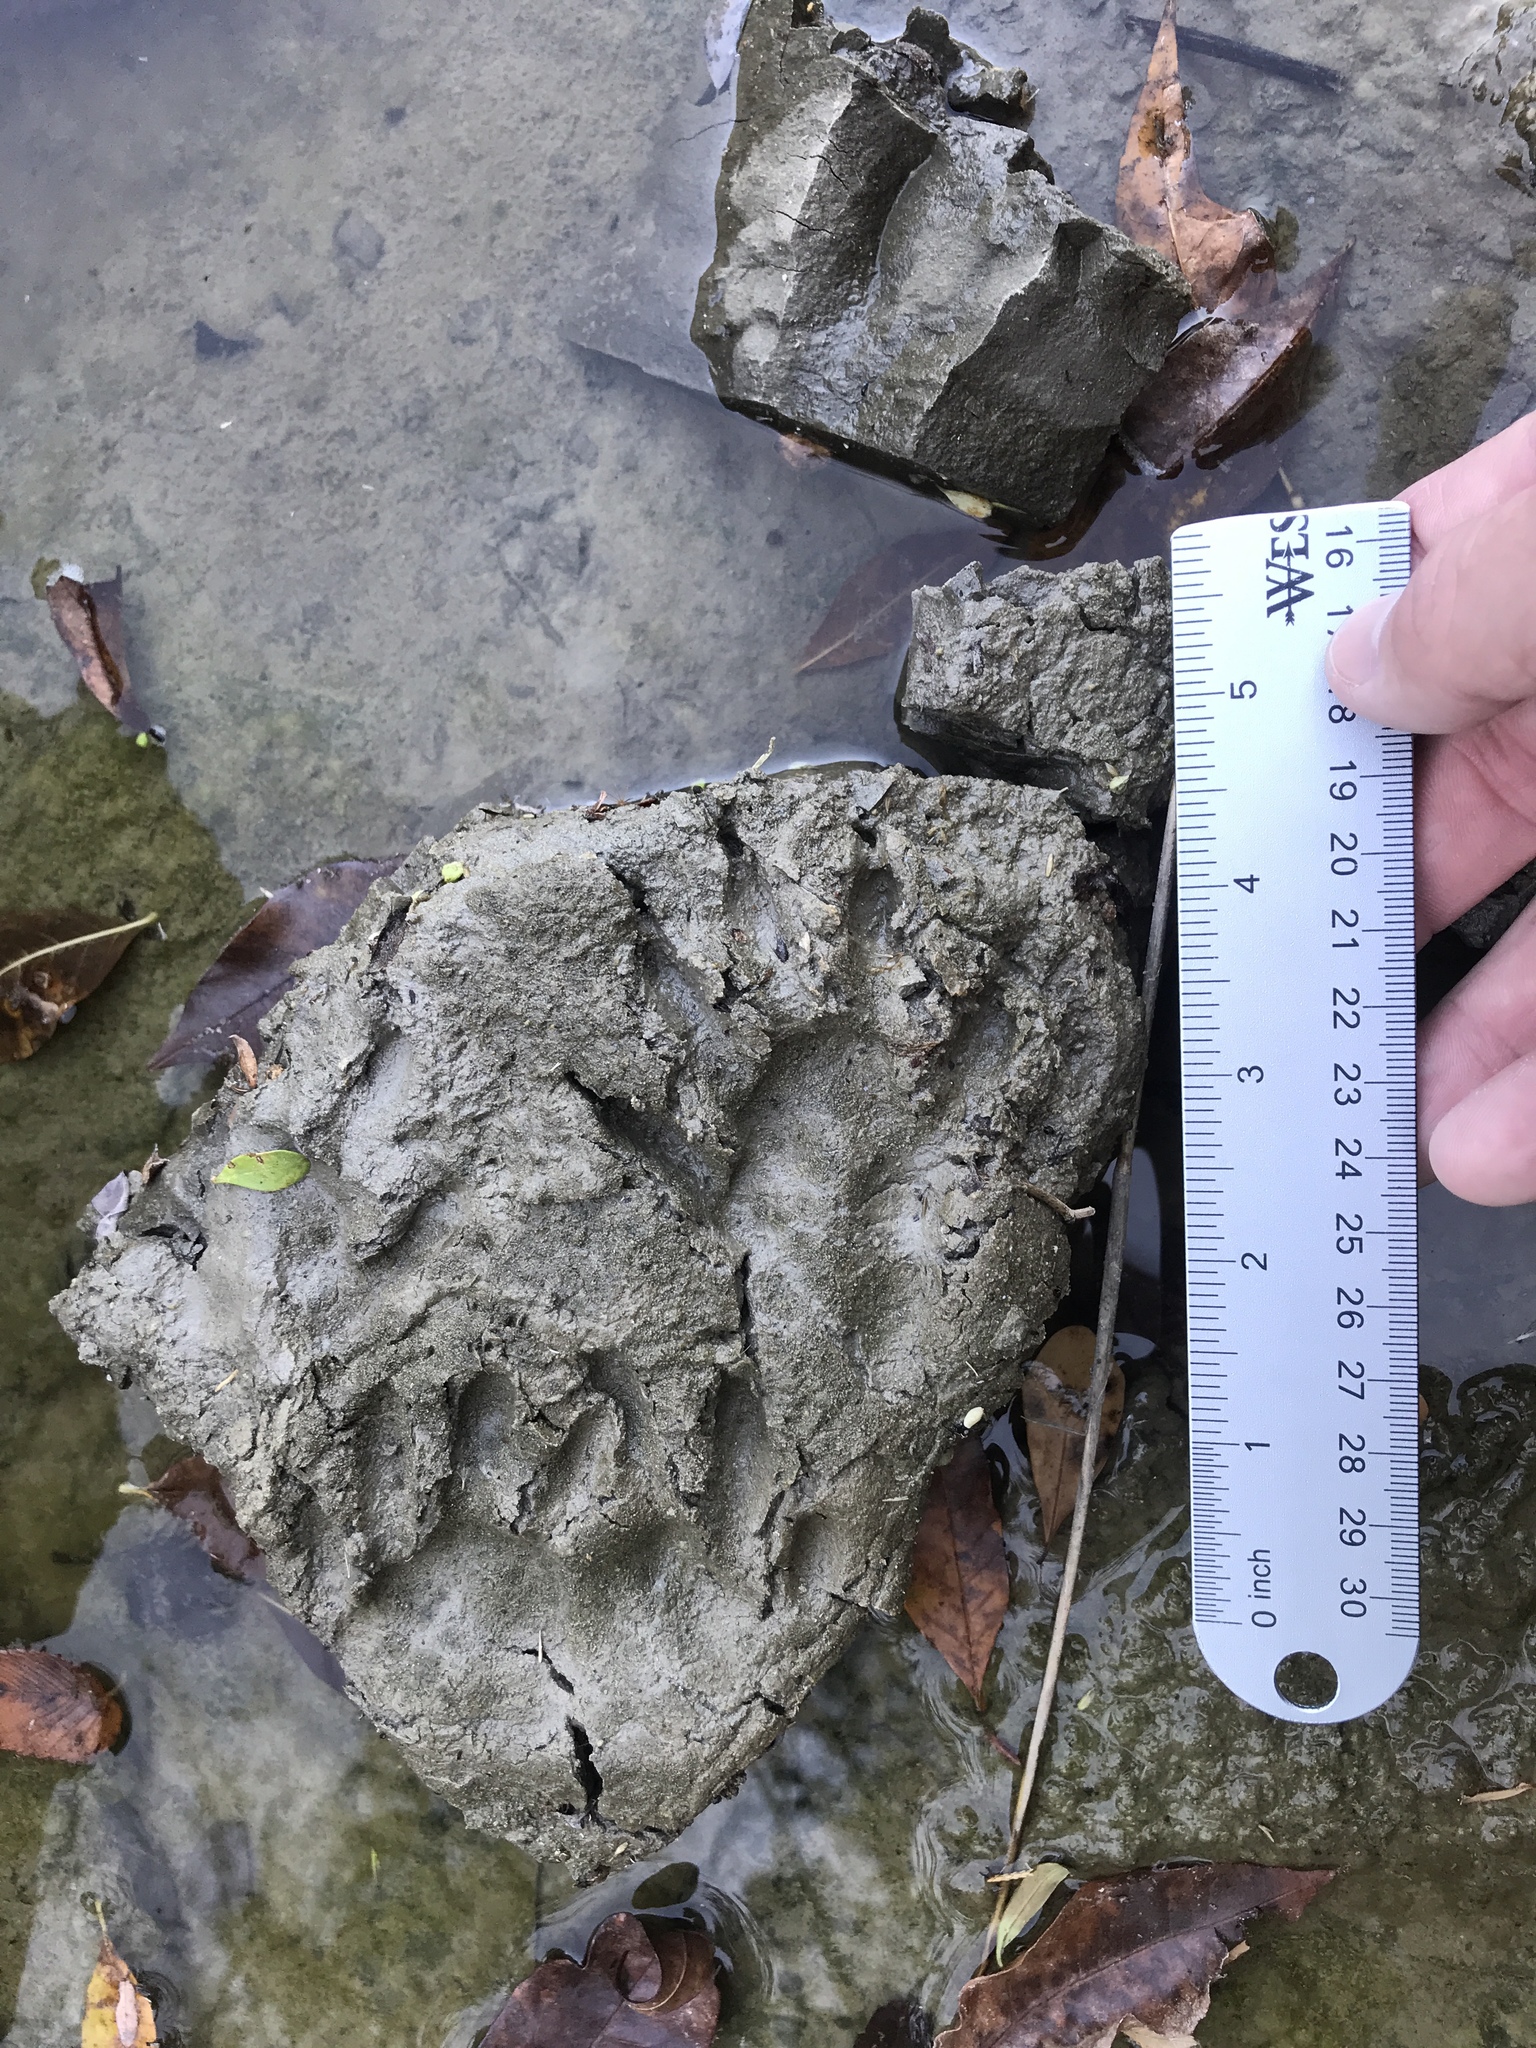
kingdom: Animalia
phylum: Chordata
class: Mammalia
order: Carnivora
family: Procyonidae
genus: Procyon
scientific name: Procyon lotor
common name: Raccoon
